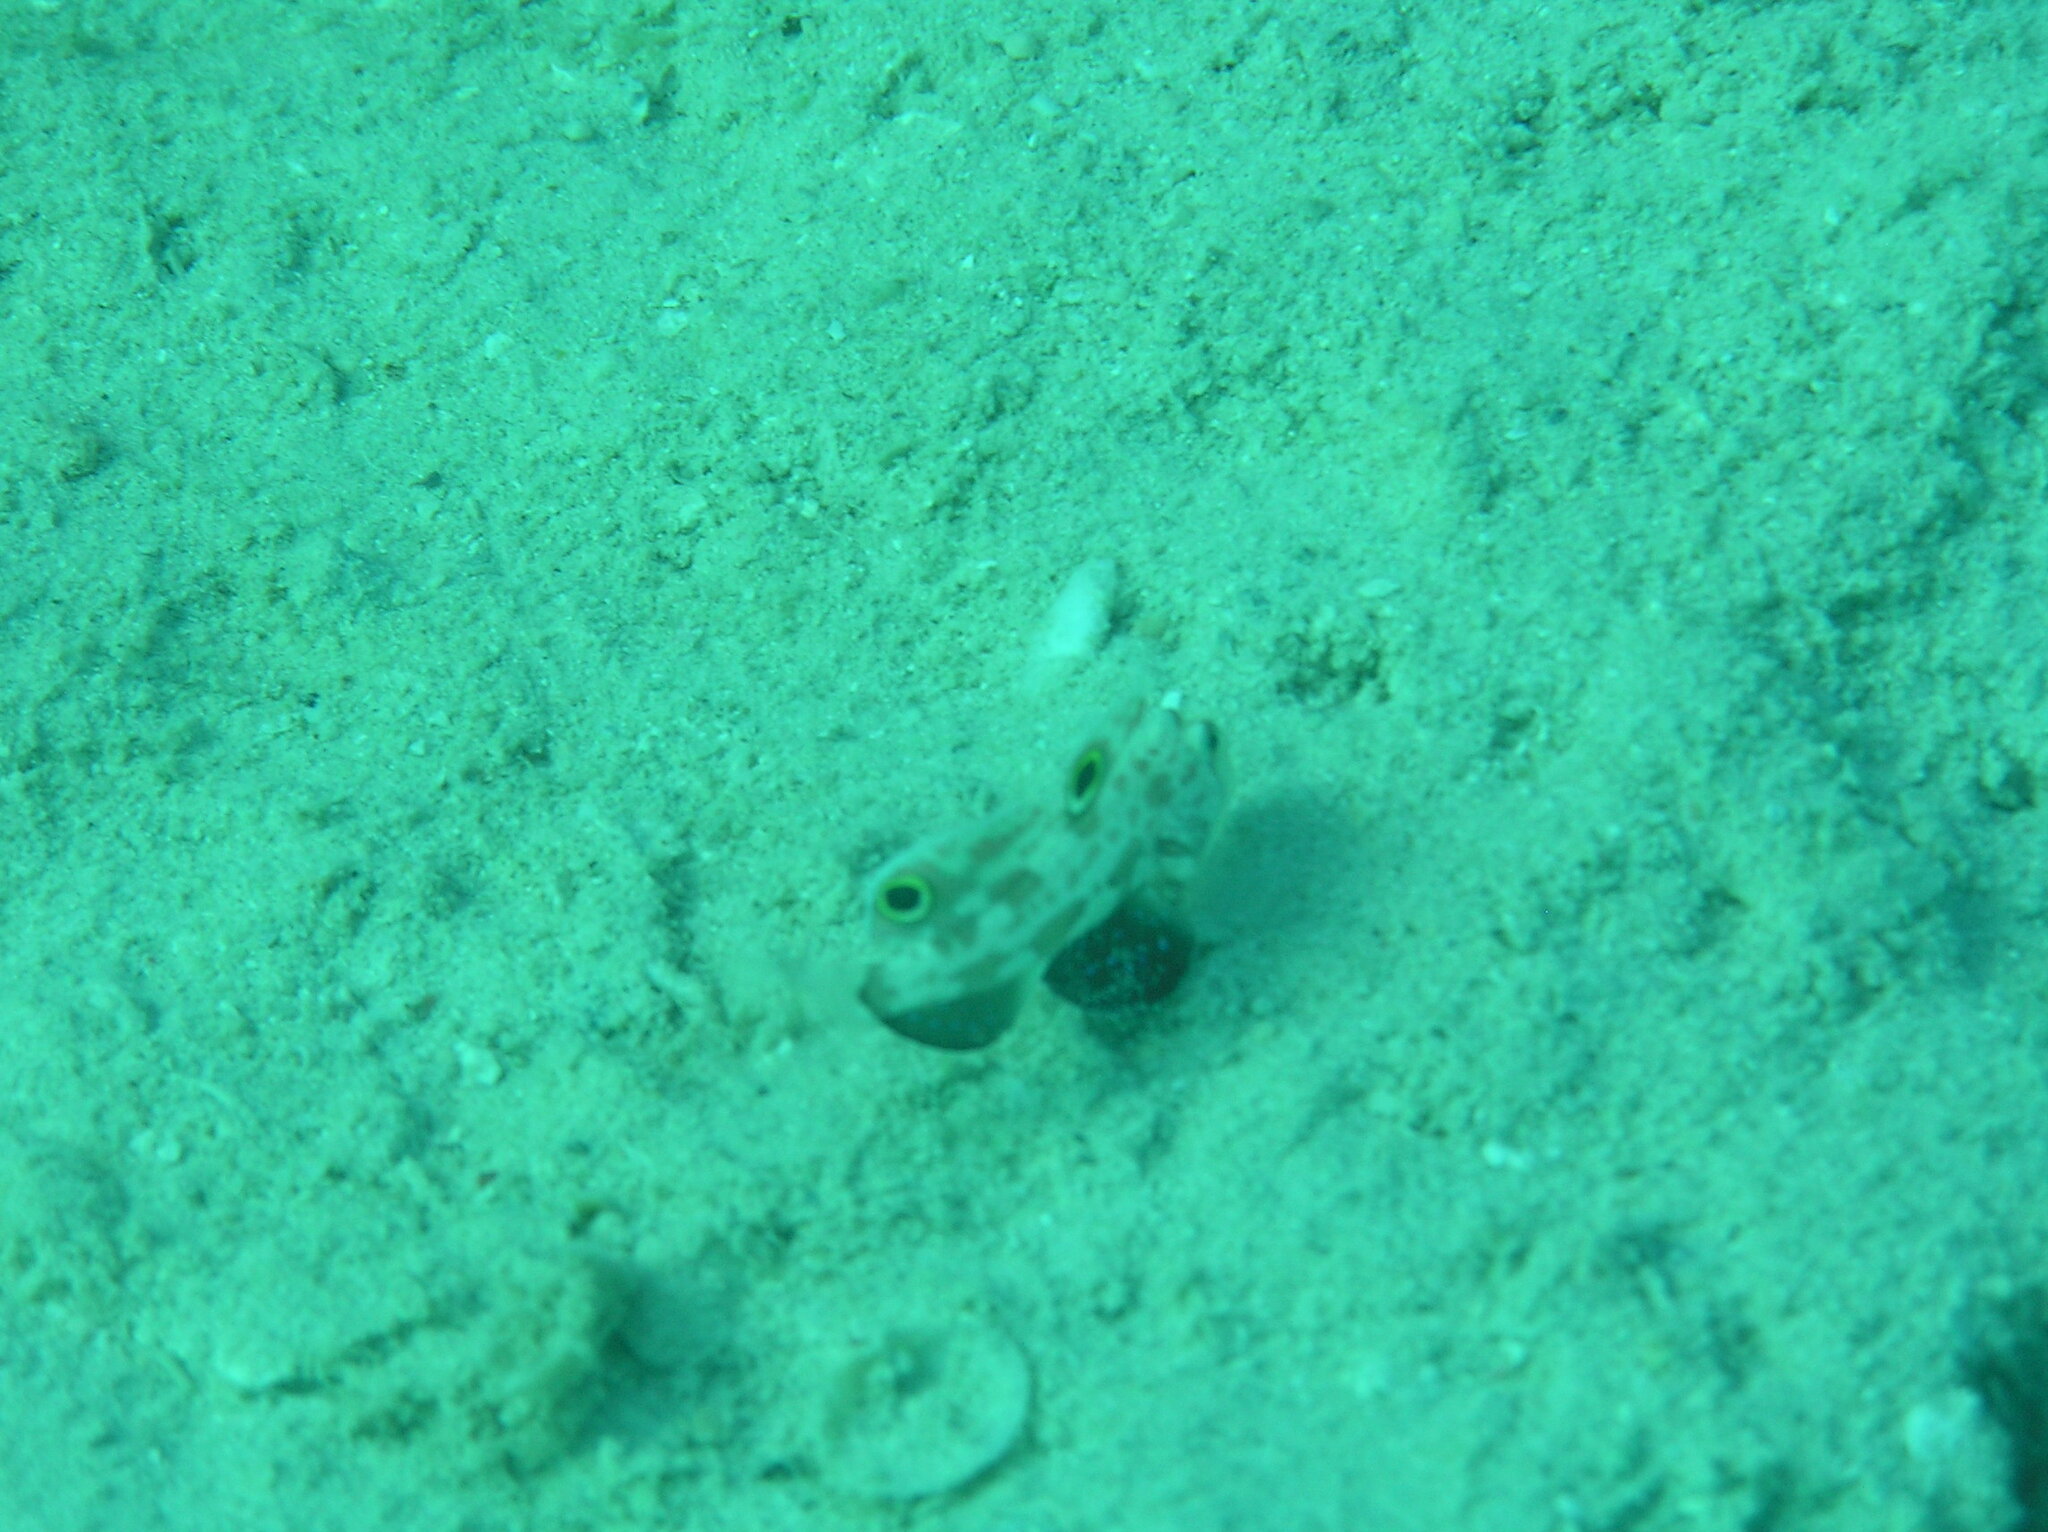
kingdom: Animalia
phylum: Chordata
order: Perciformes
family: Gobiidae
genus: Signigobius
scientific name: Signigobius biocellatus
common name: Crab-eye goby
